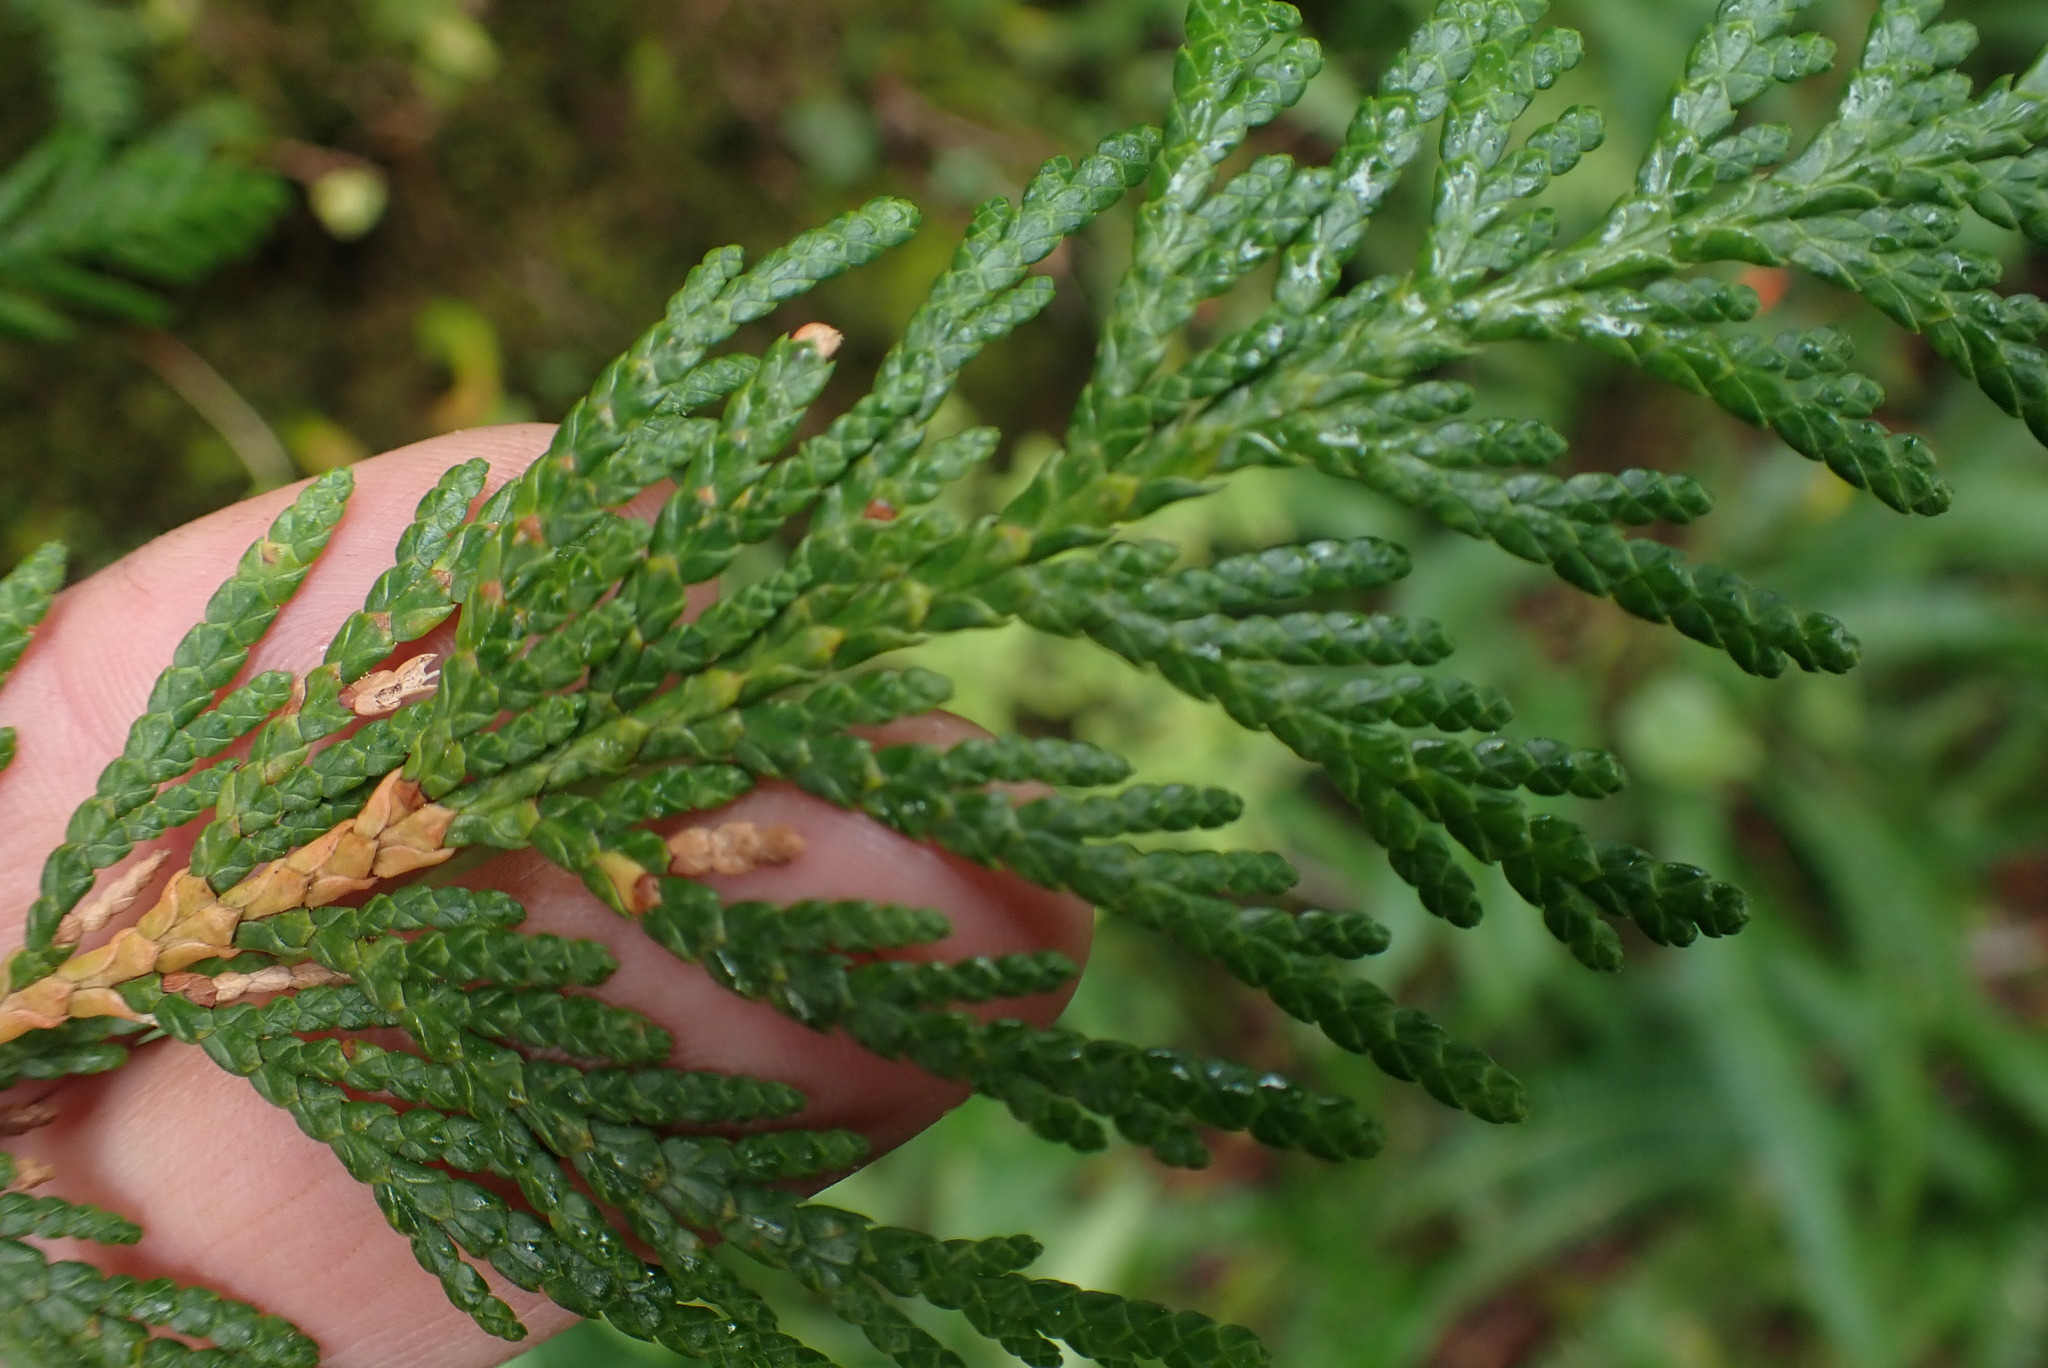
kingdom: Plantae
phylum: Tracheophyta
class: Pinopsida
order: Pinales
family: Cupressaceae
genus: Thuja
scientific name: Thuja plicata
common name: Western red-cedar
